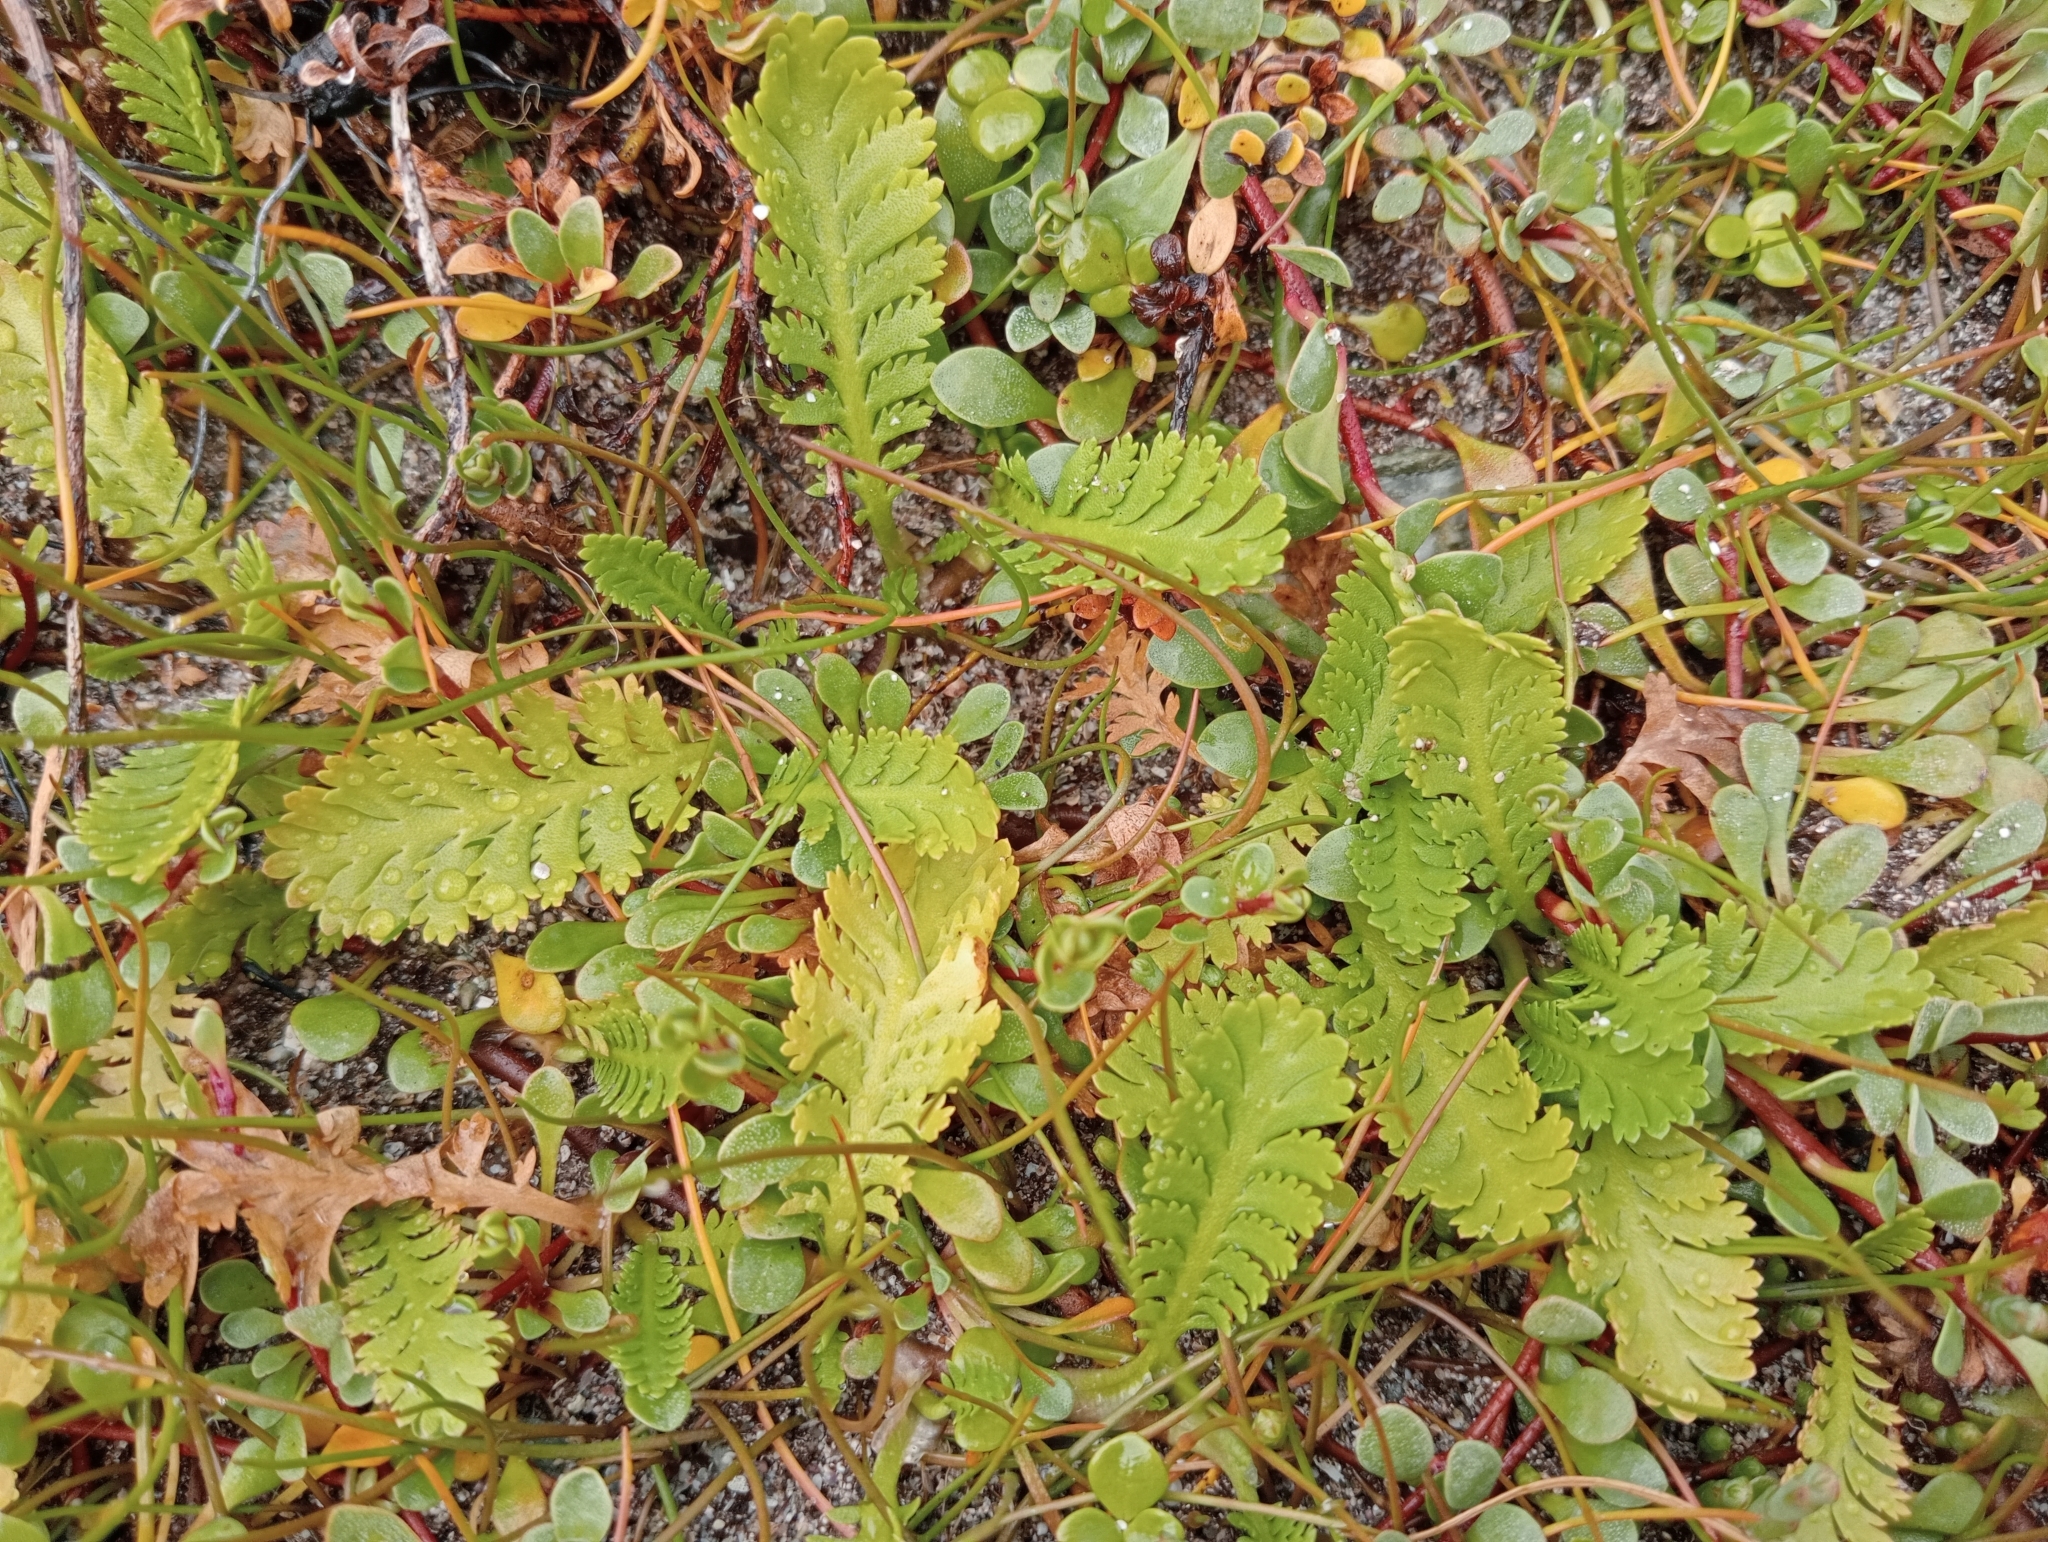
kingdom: Plantae
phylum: Tracheophyta
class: Magnoliopsida
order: Asterales
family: Asteraceae
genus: Leptinella
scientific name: Leptinella potentillina
